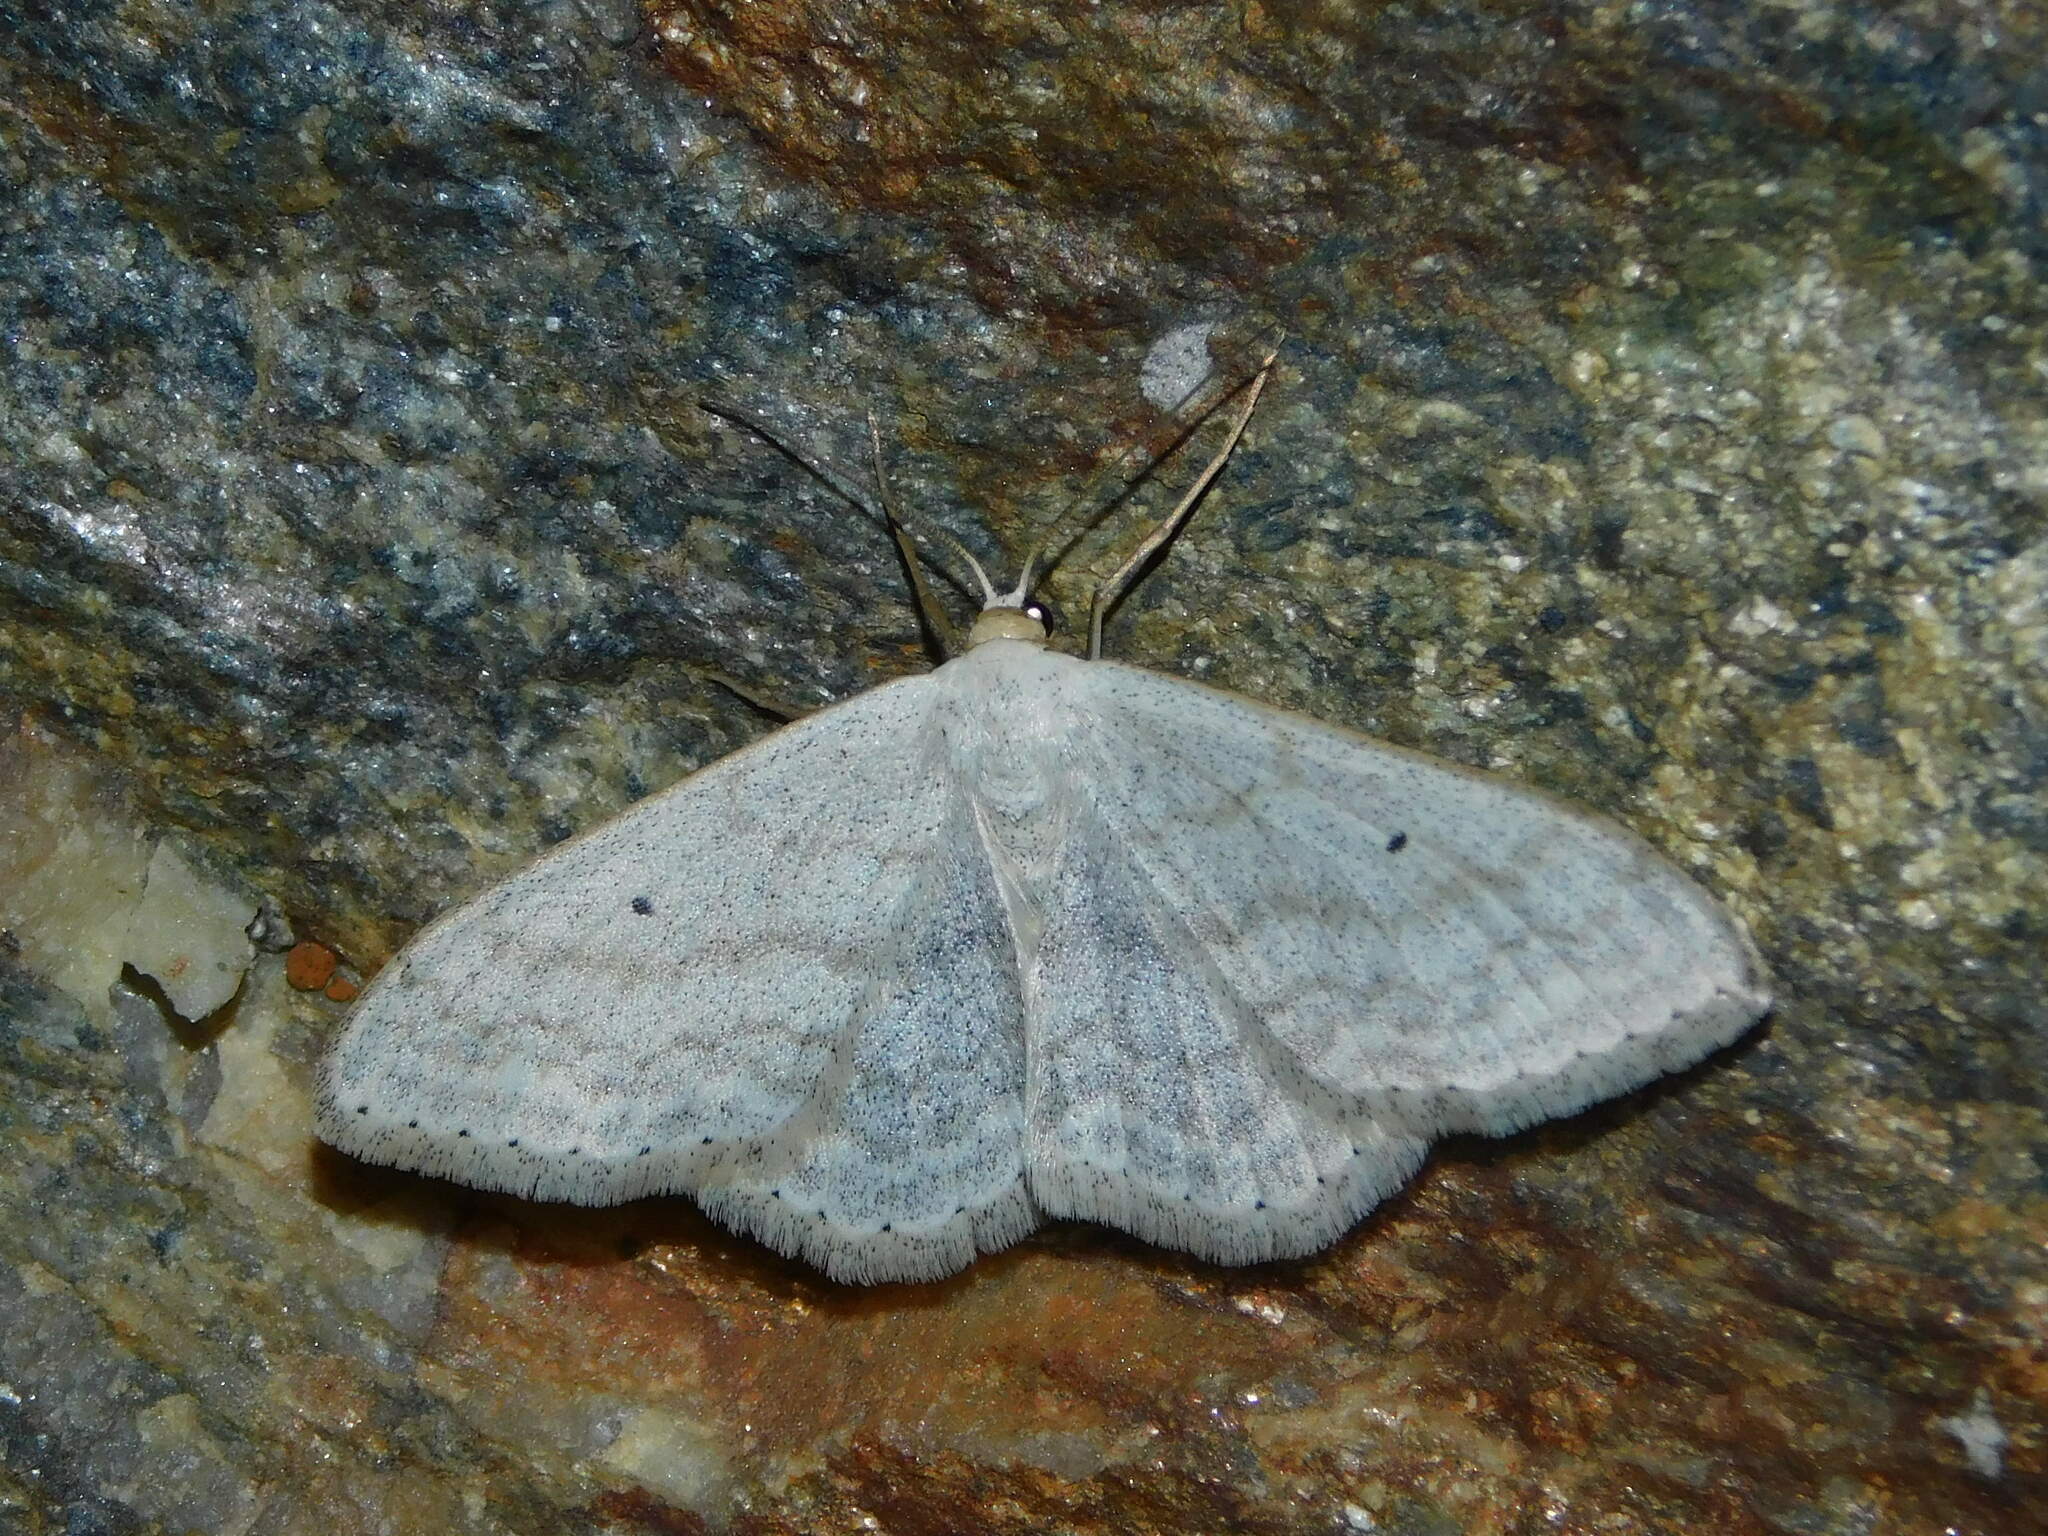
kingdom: Animalia
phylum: Arthropoda
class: Insecta
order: Lepidoptera
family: Geometridae
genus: Scopula
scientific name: Scopula incanata
